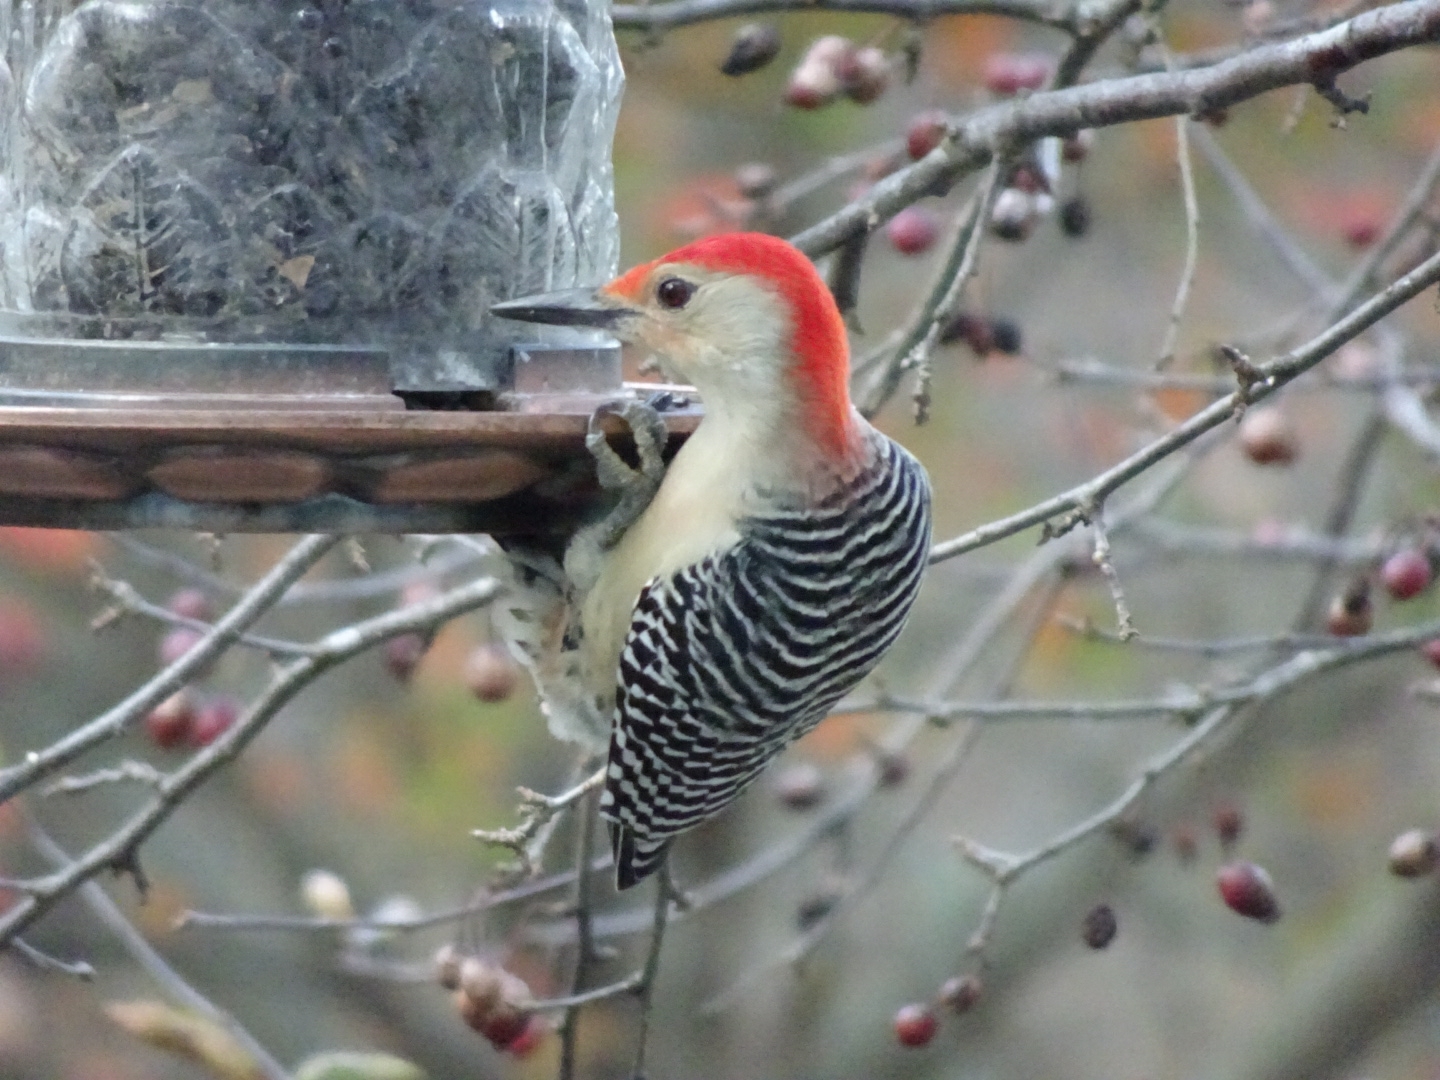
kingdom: Animalia
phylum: Chordata
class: Aves
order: Piciformes
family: Picidae
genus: Melanerpes
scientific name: Melanerpes carolinus
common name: Red-bellied woodpecker
